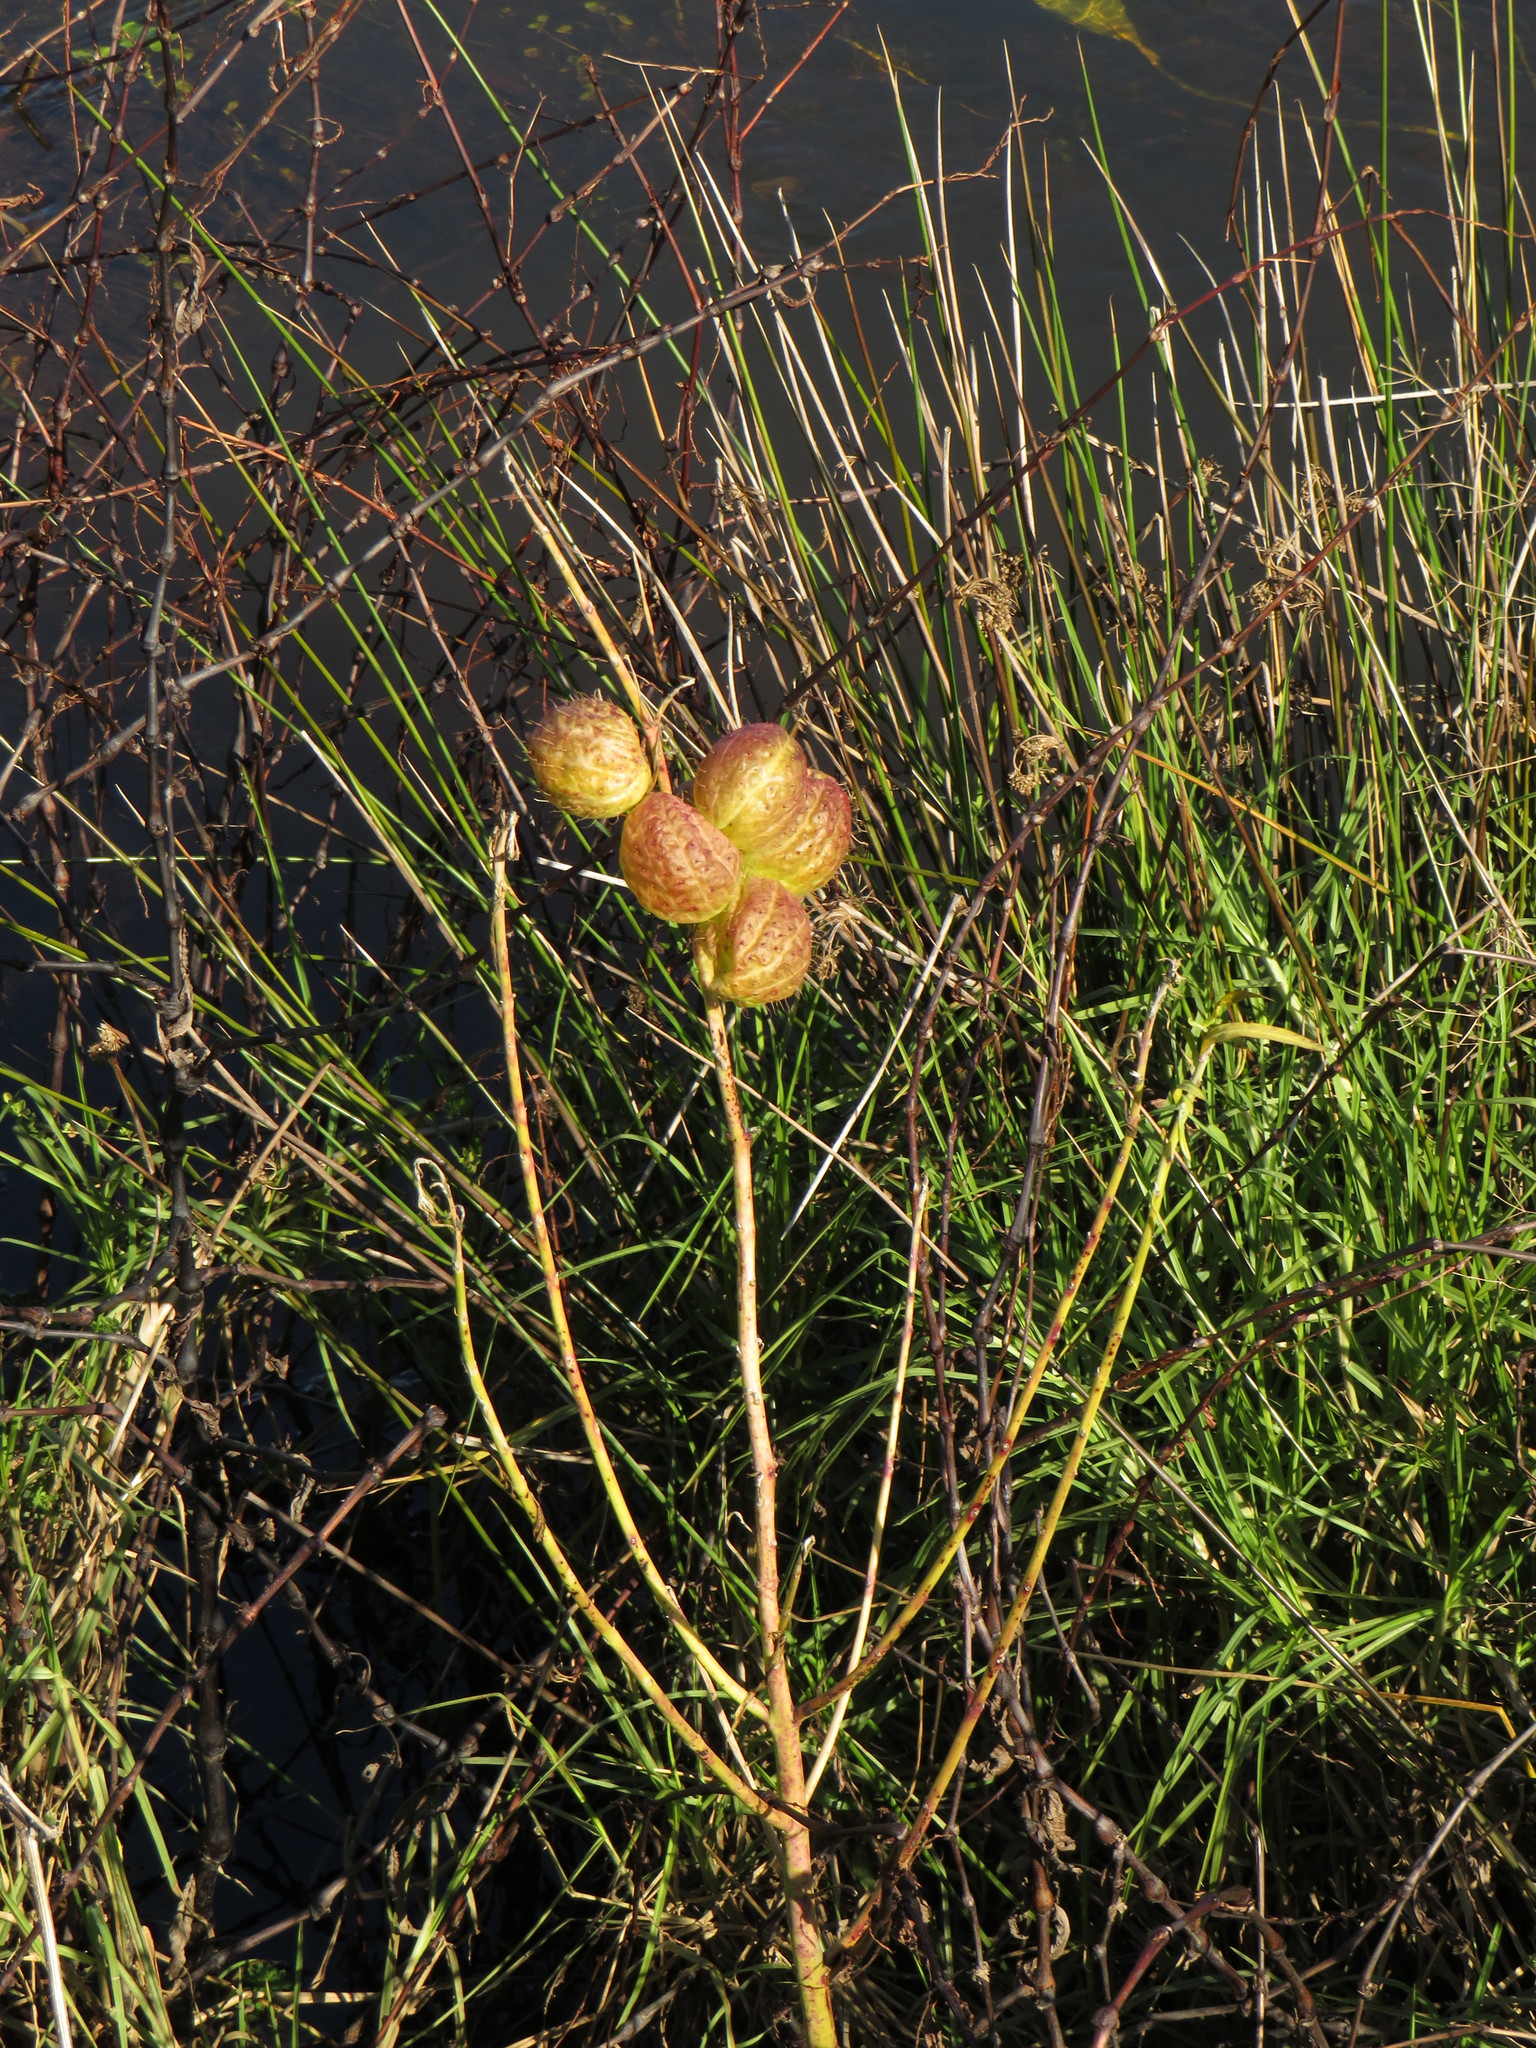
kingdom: Plantae
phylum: Tracheophyta
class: Magnoliopsida
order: Gentianales
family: Apocynaceae
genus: Gomphocarpus
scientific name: Gomphocarpus physocarpus
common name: Balloon cotton bush
